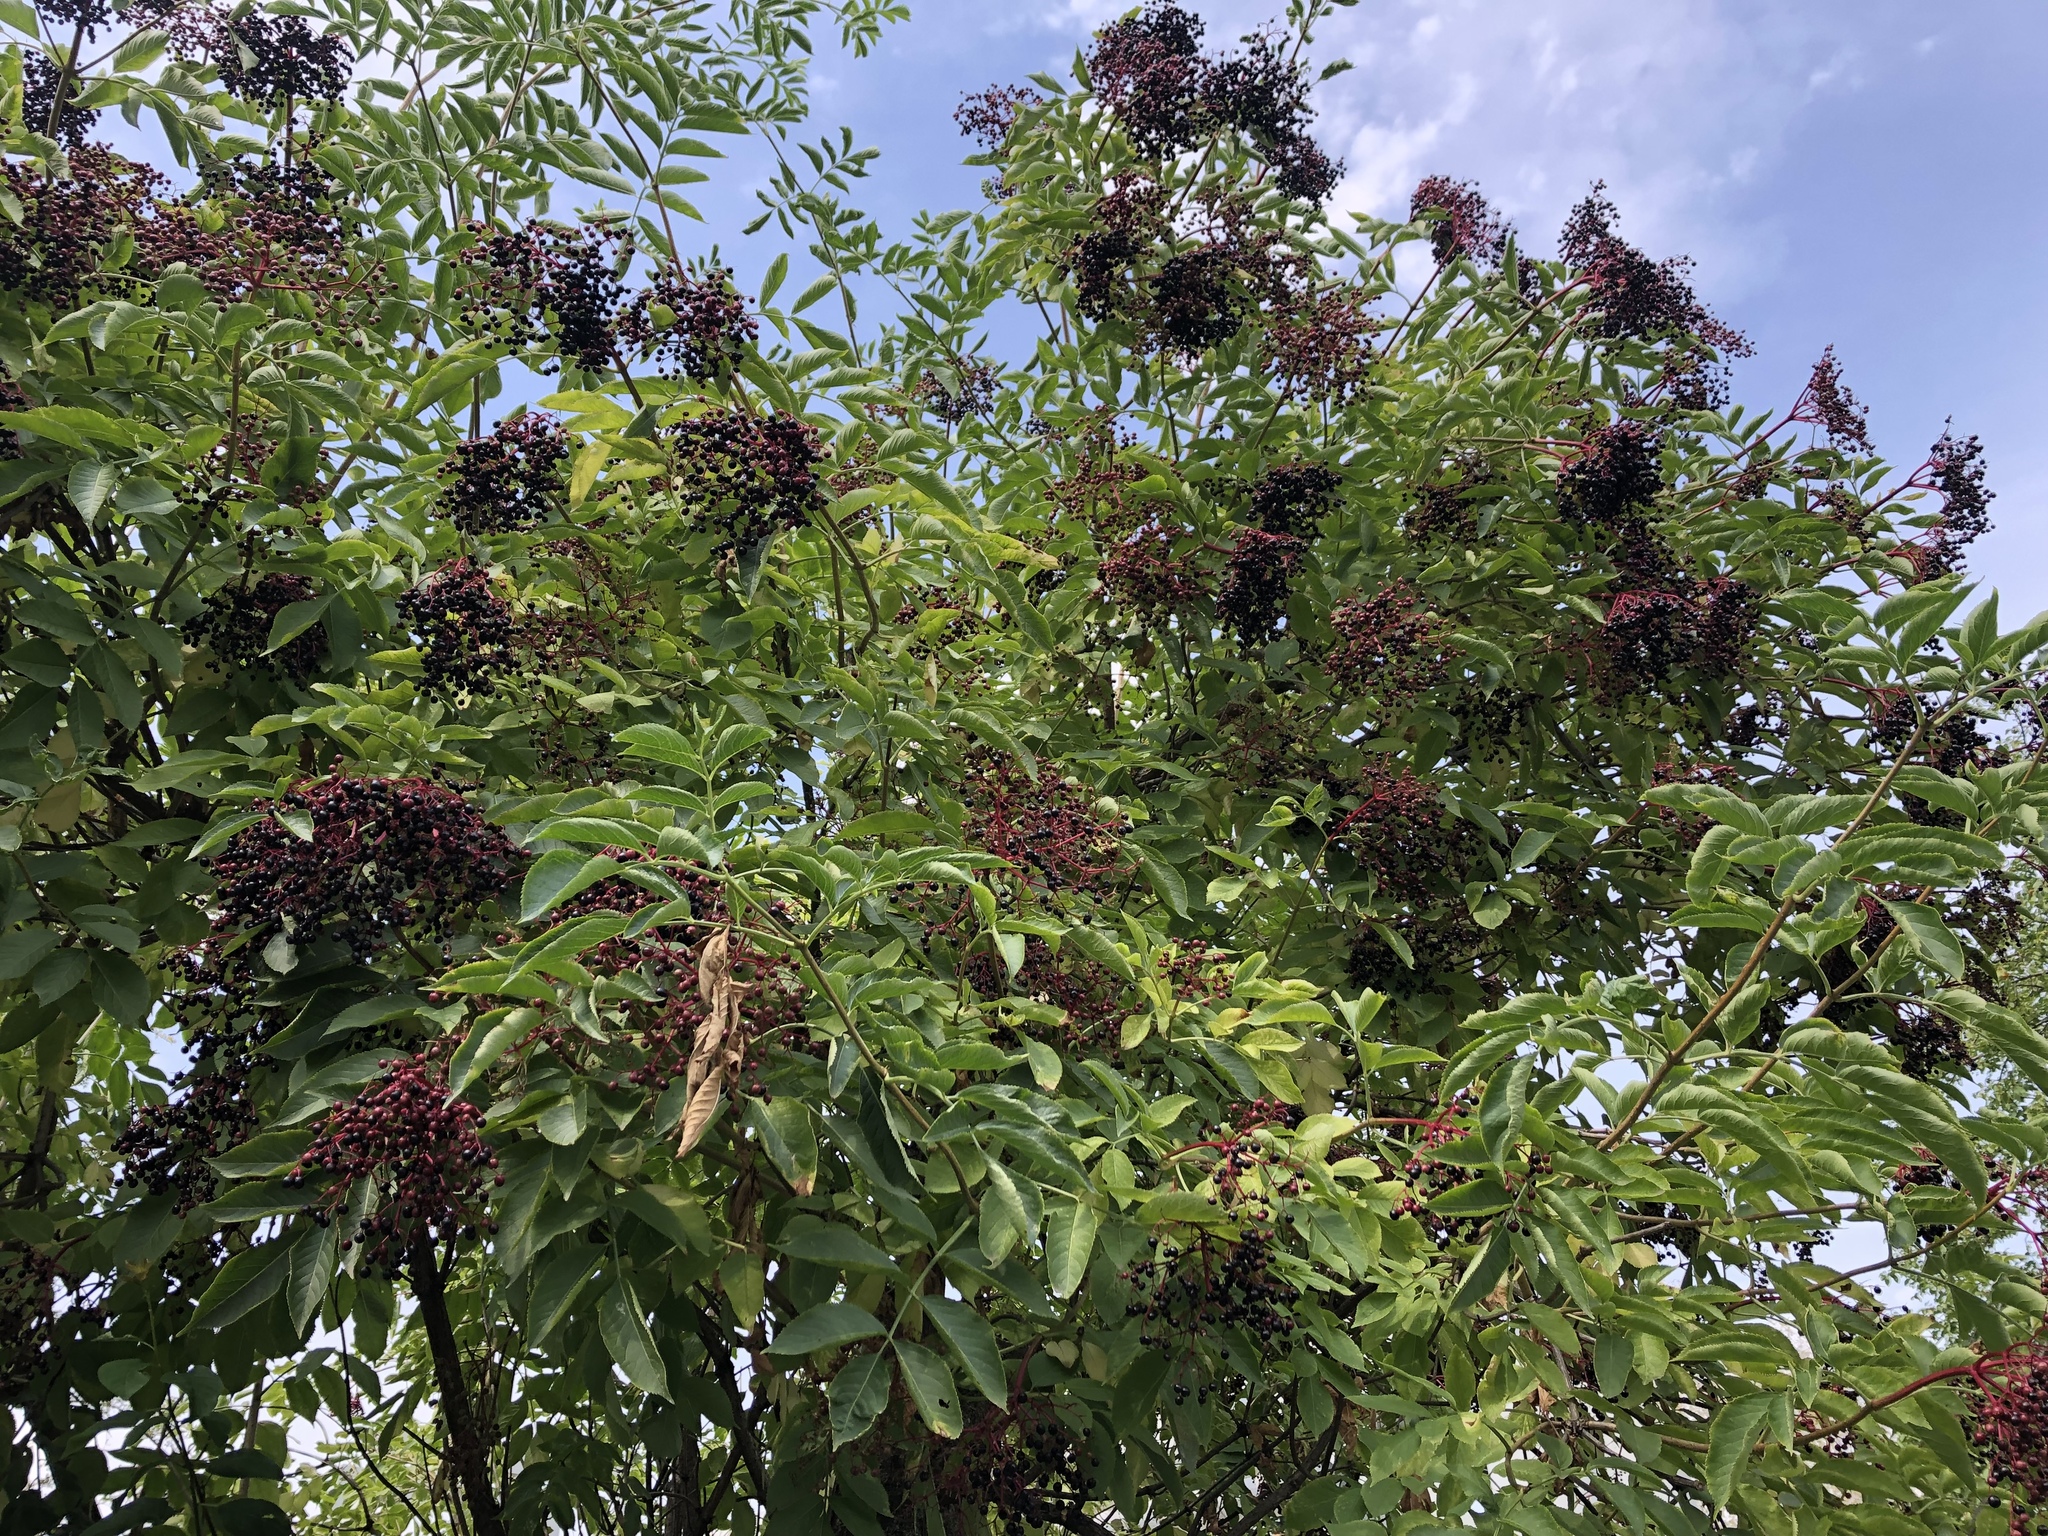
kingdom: Plantae
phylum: Tracheophyta
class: Magnoliopsida
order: Dipsacales
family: Viburnaceae
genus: Sambucus
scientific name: Sambucus nigra
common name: Elder
